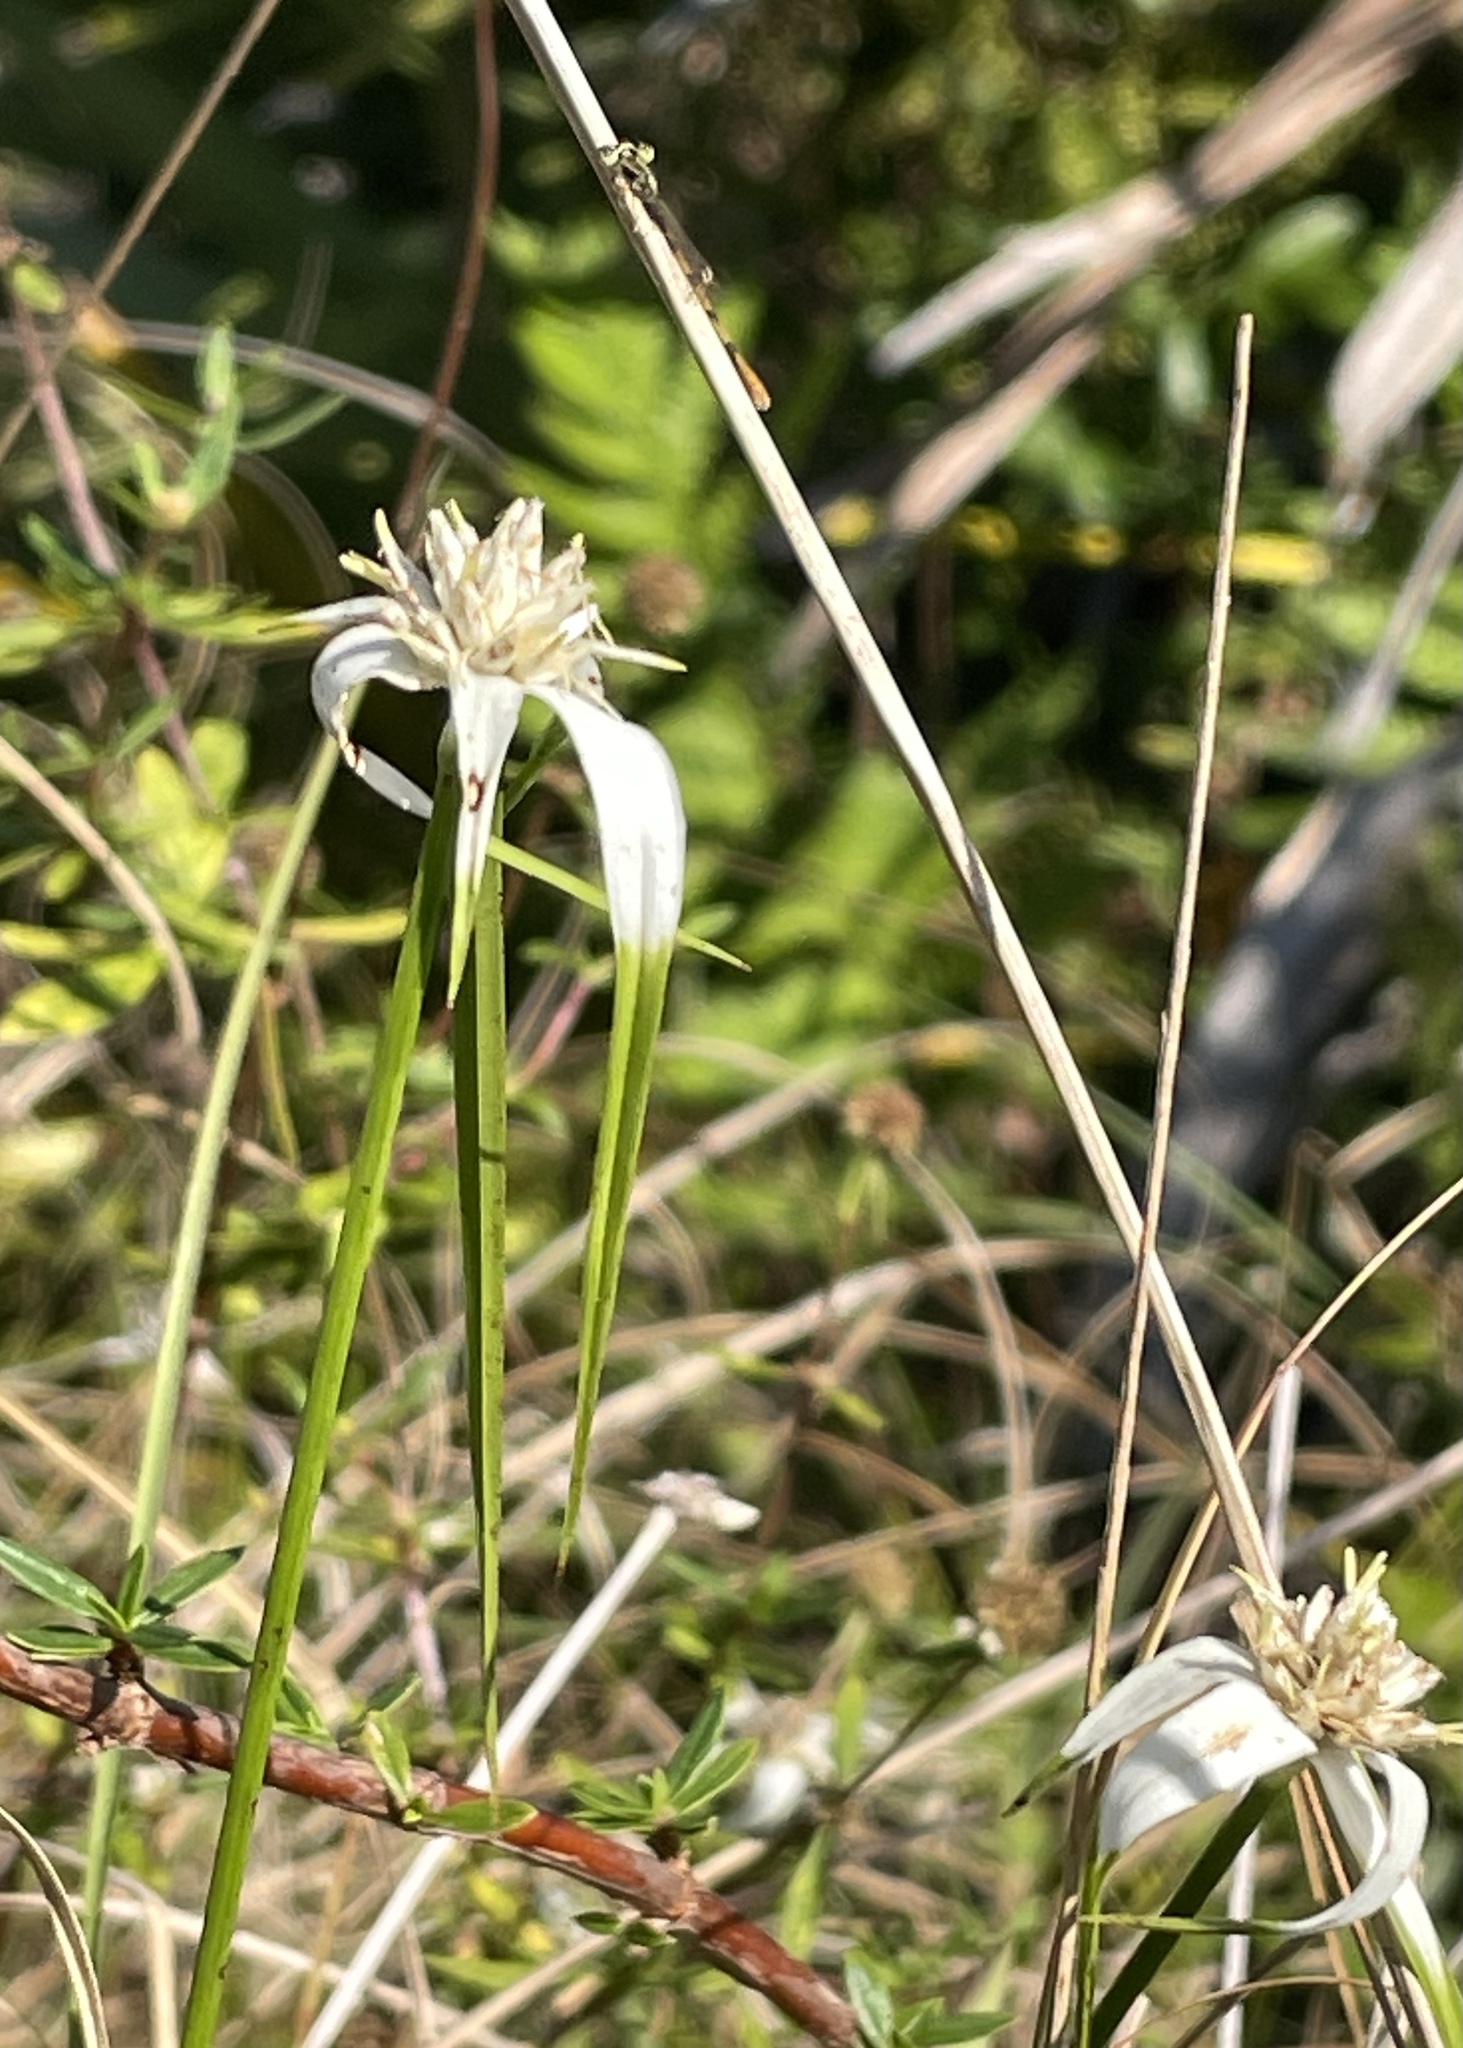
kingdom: Plantae
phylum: Tracheophyta
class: Liliopsida
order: Poales
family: Cyperaceae
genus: Rhynchospora
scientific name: Rhynchospora colorata
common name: Star sedge
